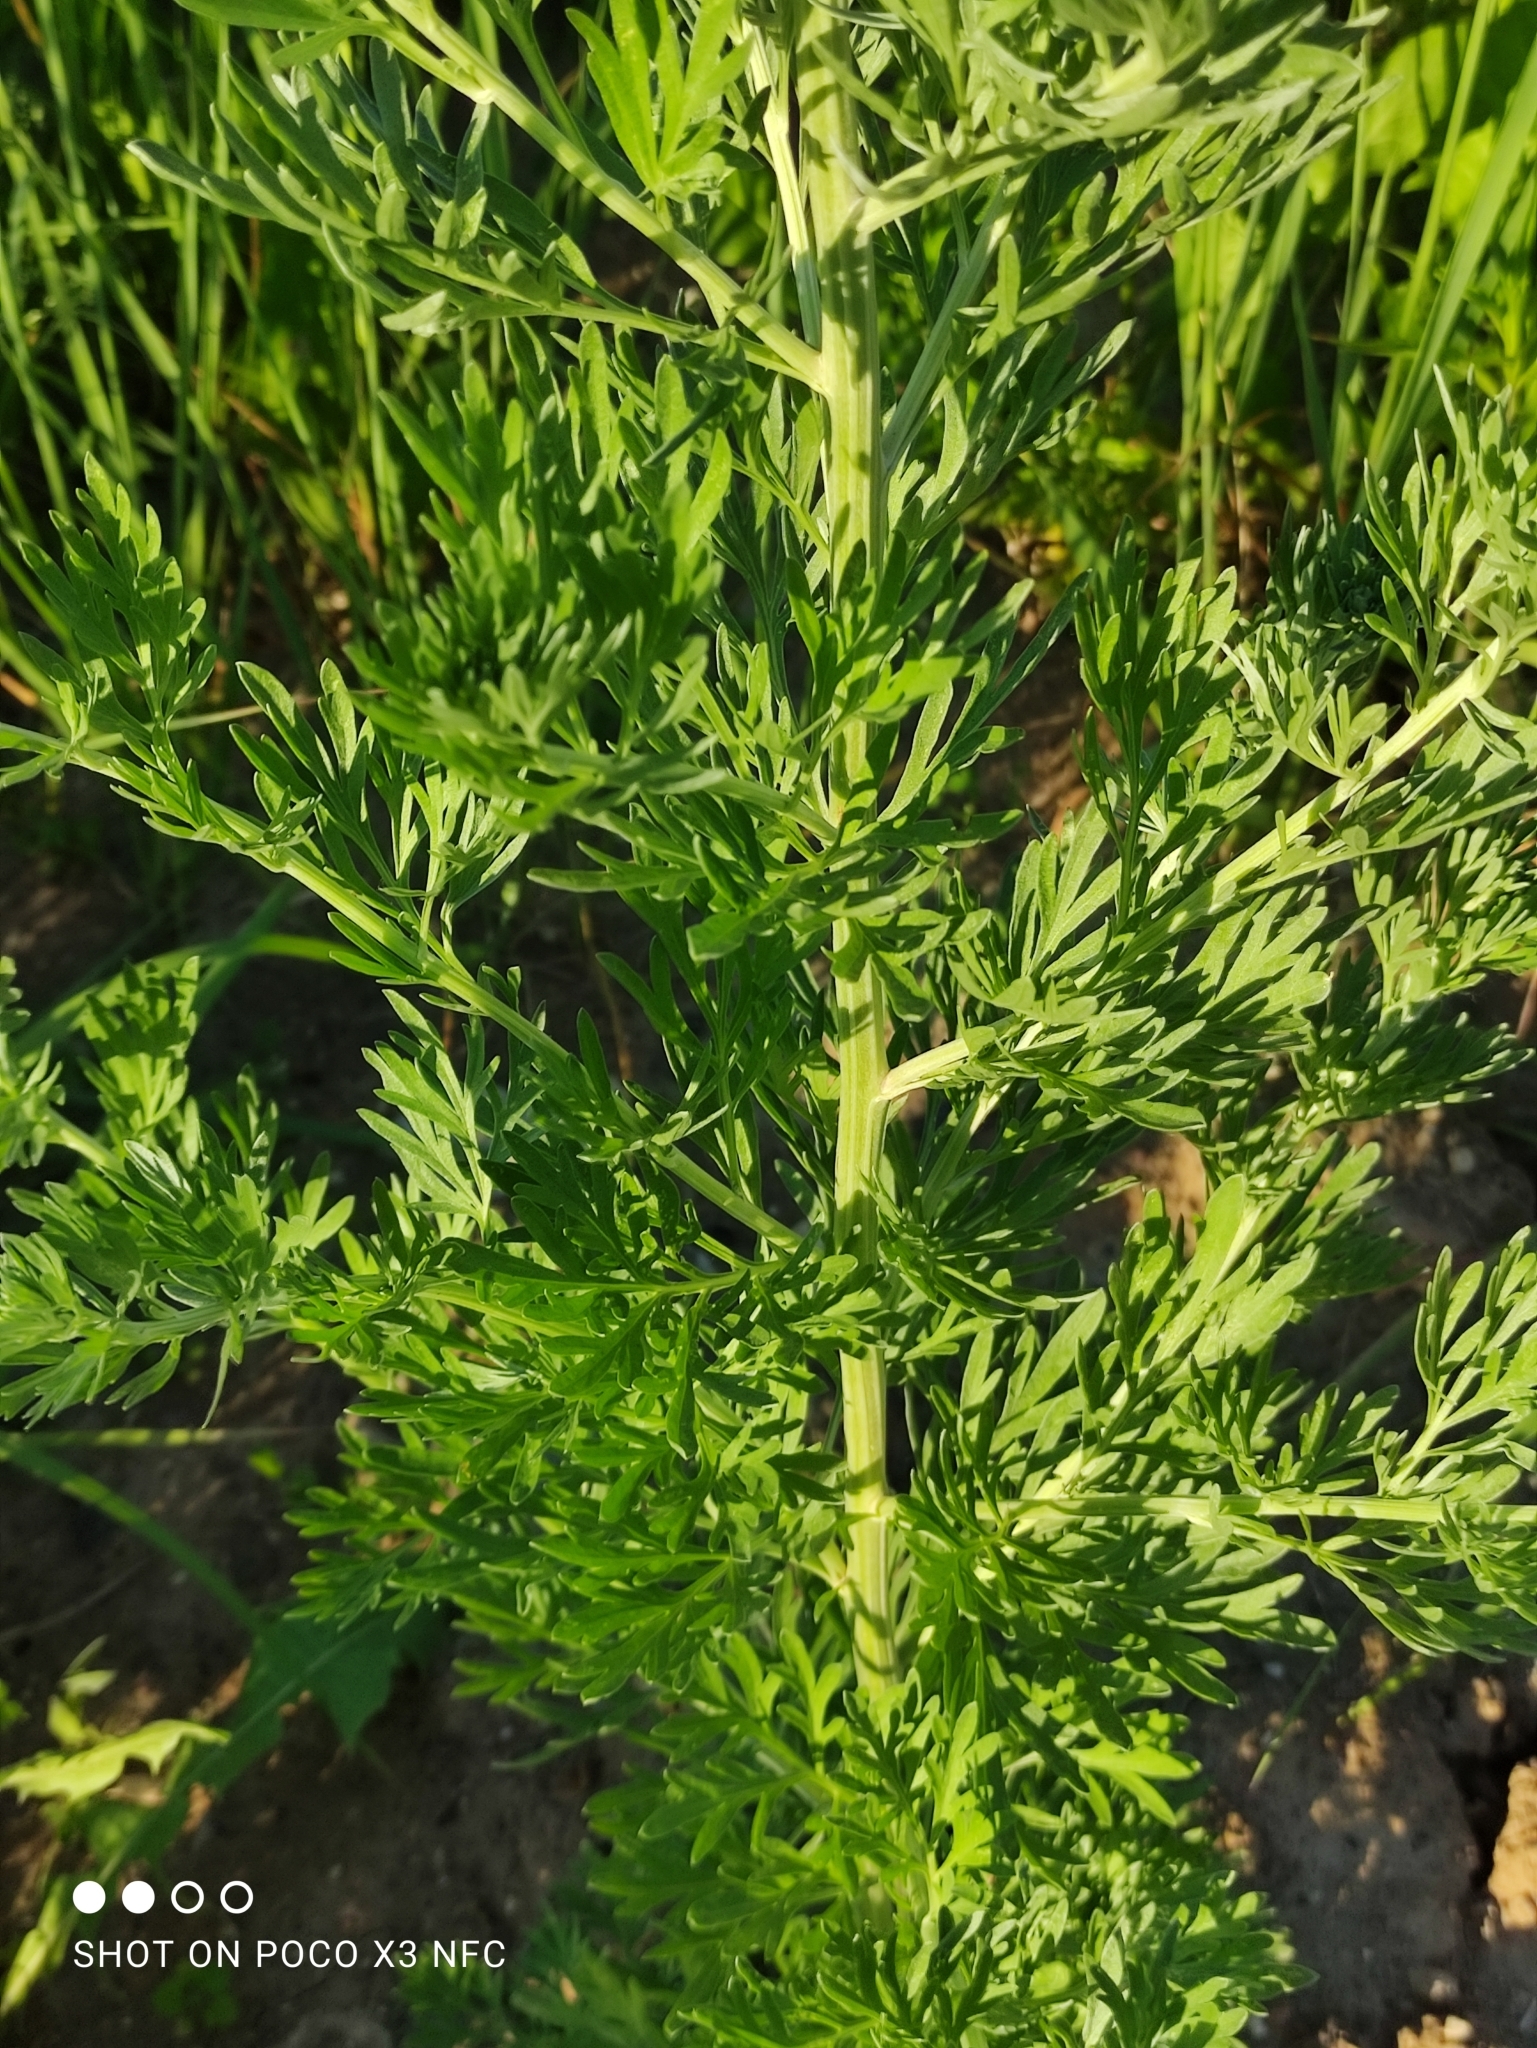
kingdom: Plantae
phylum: Tracheophyta
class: Magnoliopsida
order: Asterales
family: Asteraceae
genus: Artemisia
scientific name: Artemisia absinthium
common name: Wormwood
